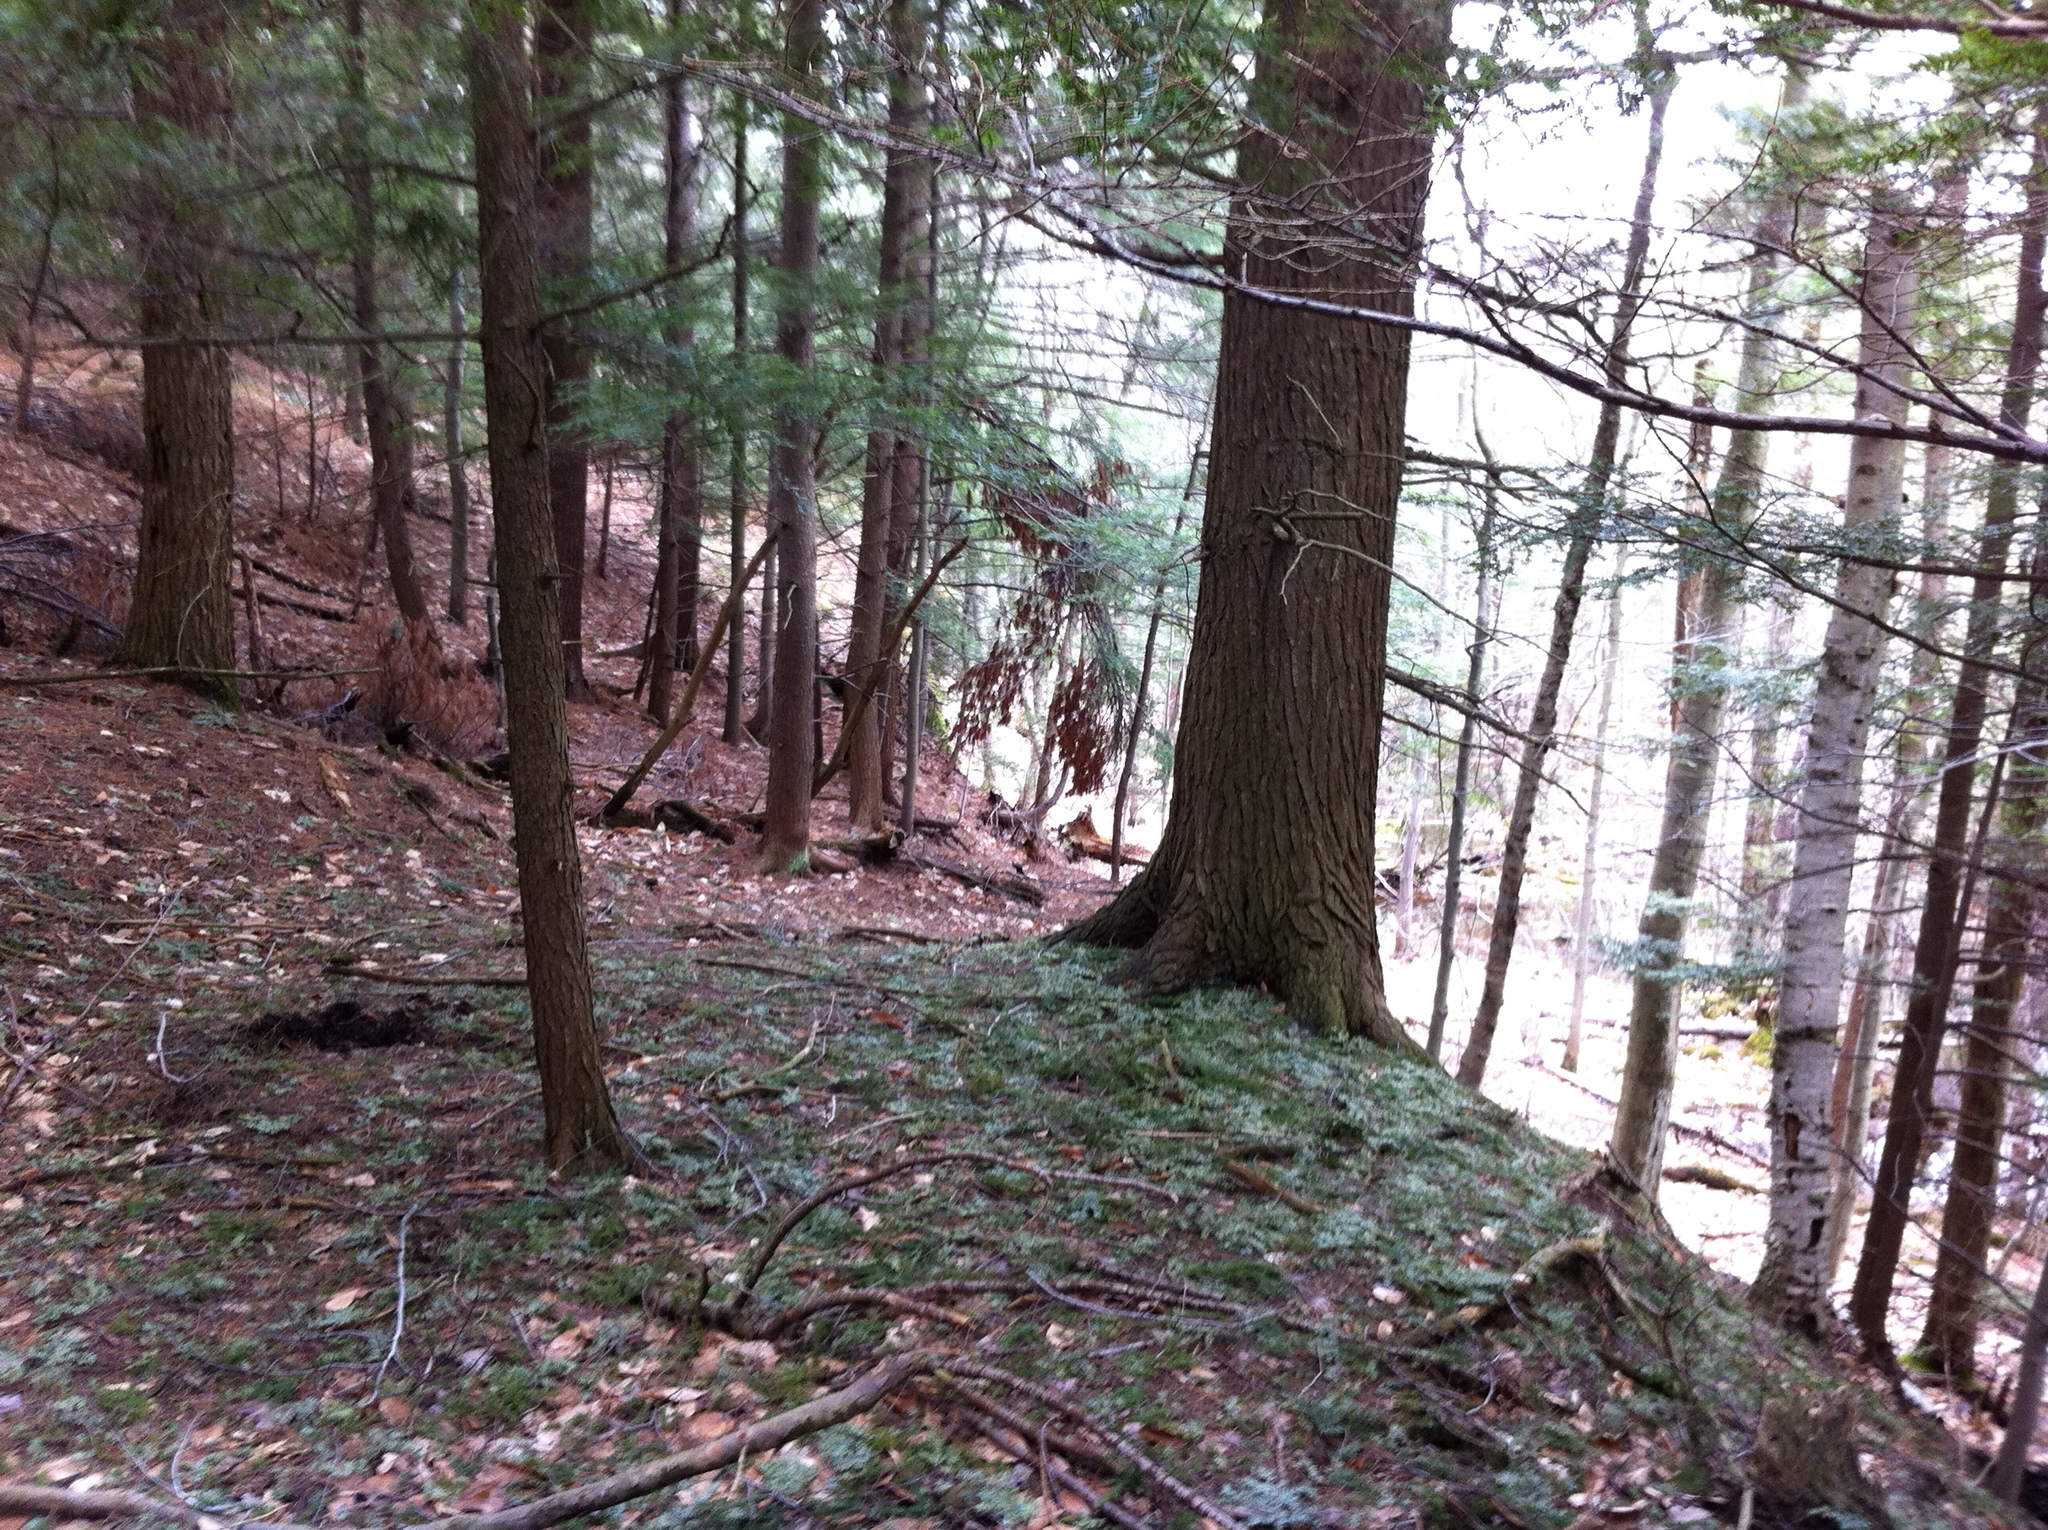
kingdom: Plantae
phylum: Tracheophyta
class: Magnoliopsida
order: Fagales
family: Betulaceae
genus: Betula
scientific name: Betula papyrifera
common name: Paper birch
